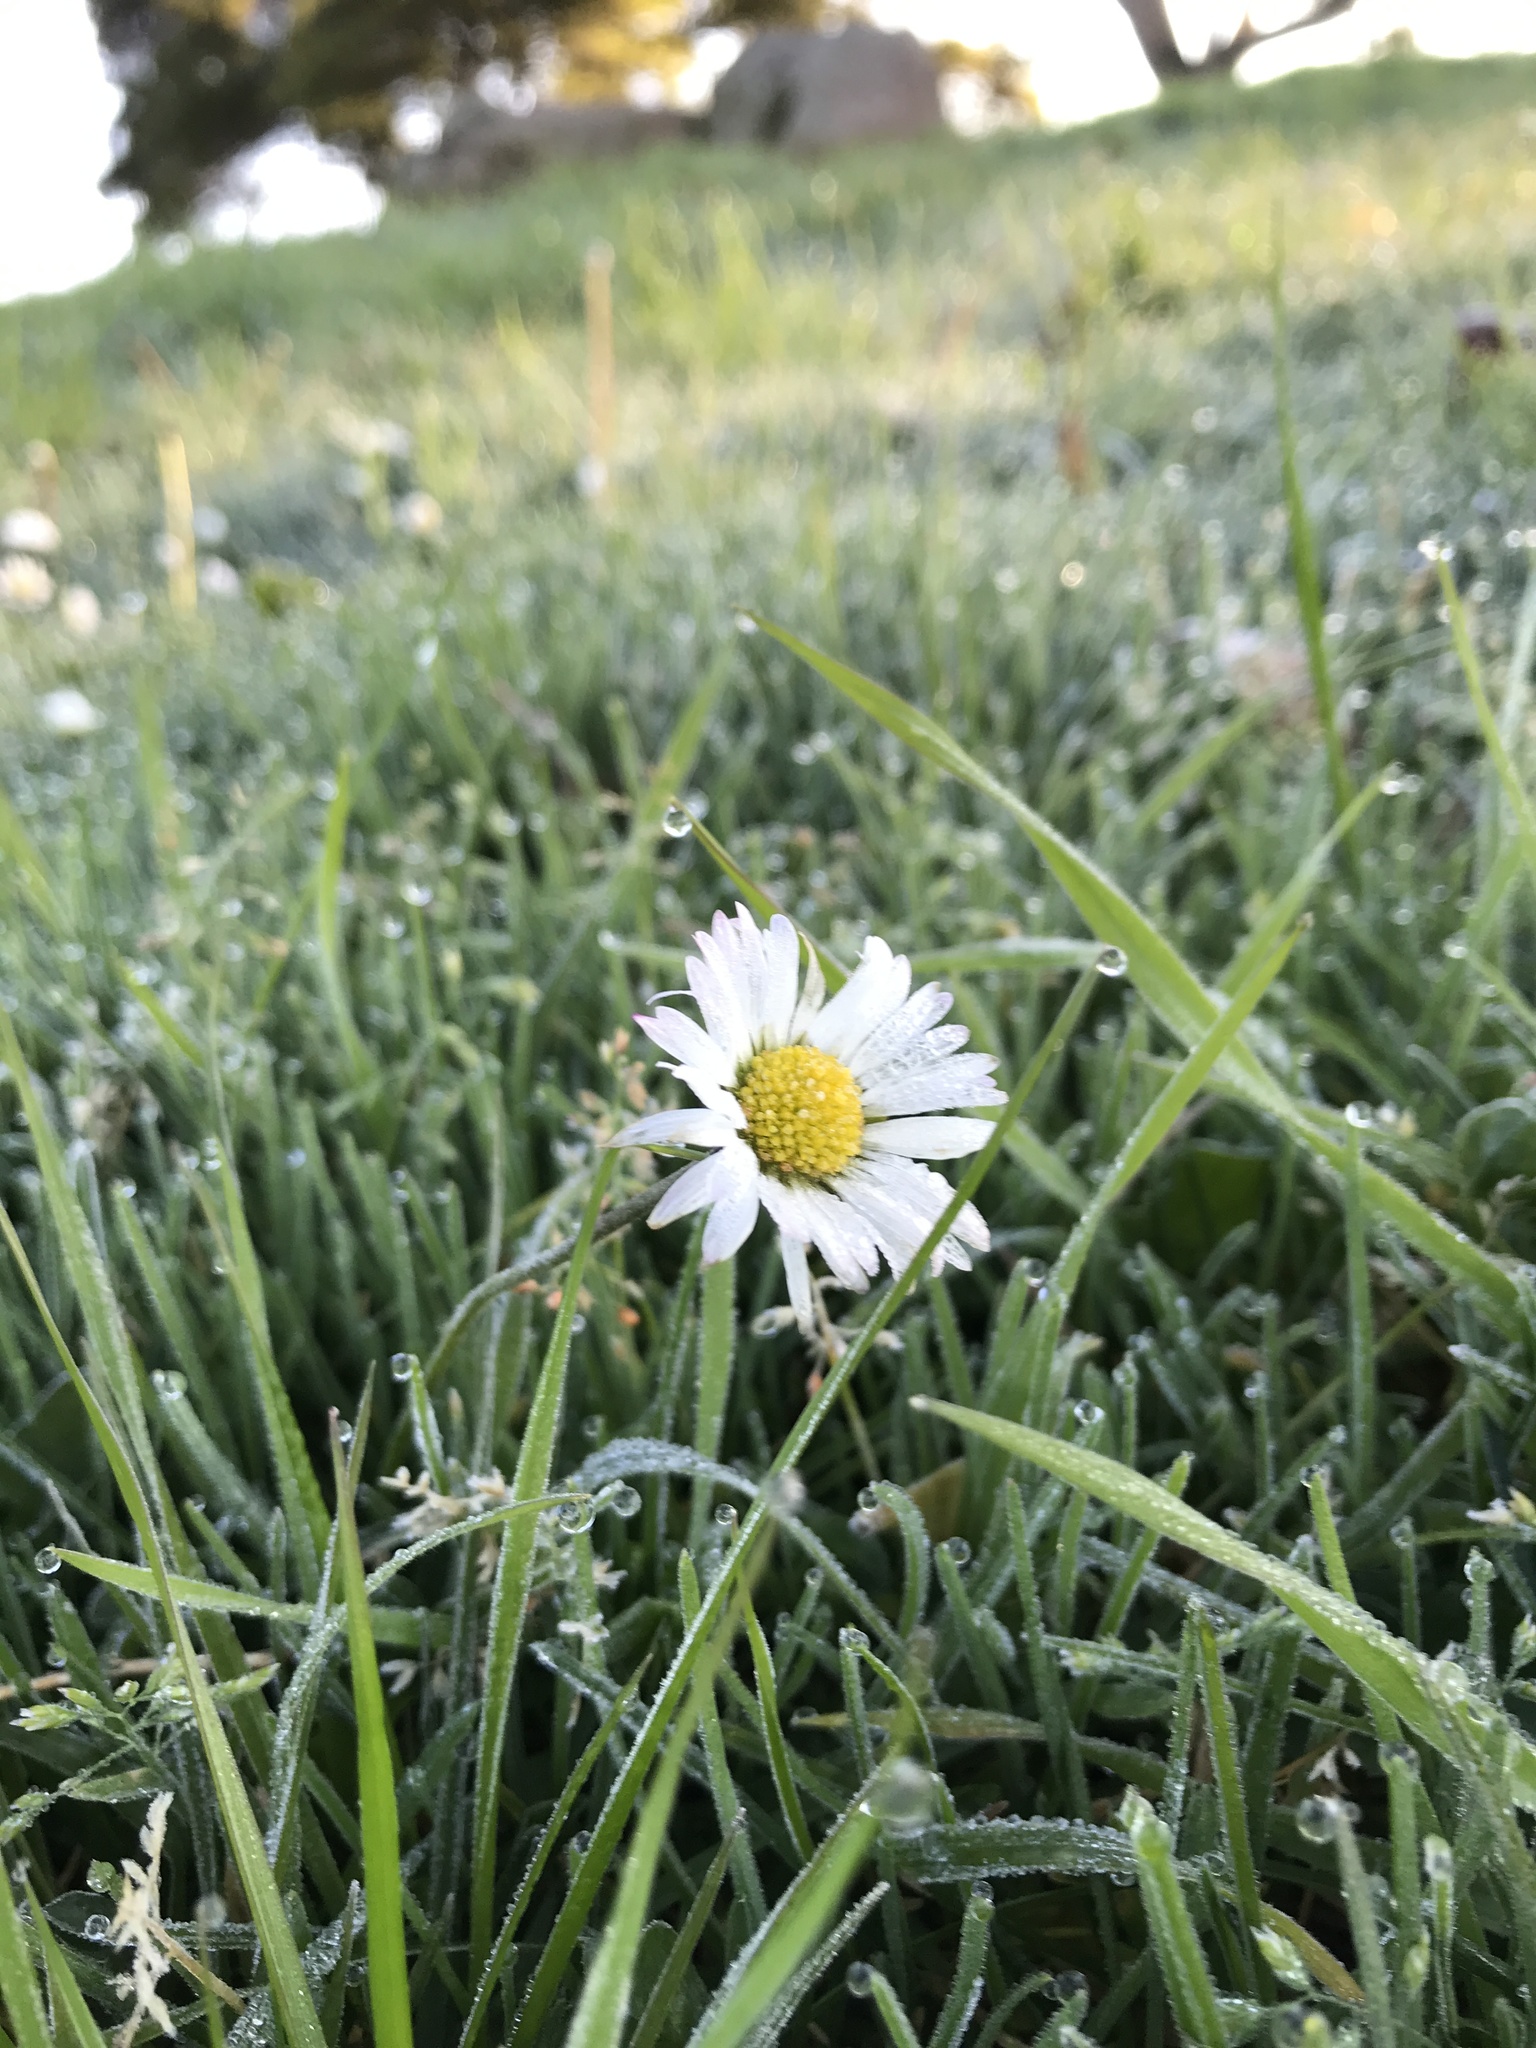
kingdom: Plantae
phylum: Tracheophyta
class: Magnoliopsida
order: Asterales
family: Asteraceae
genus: Bellis
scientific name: Bellis perennis
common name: Lawndaisy
